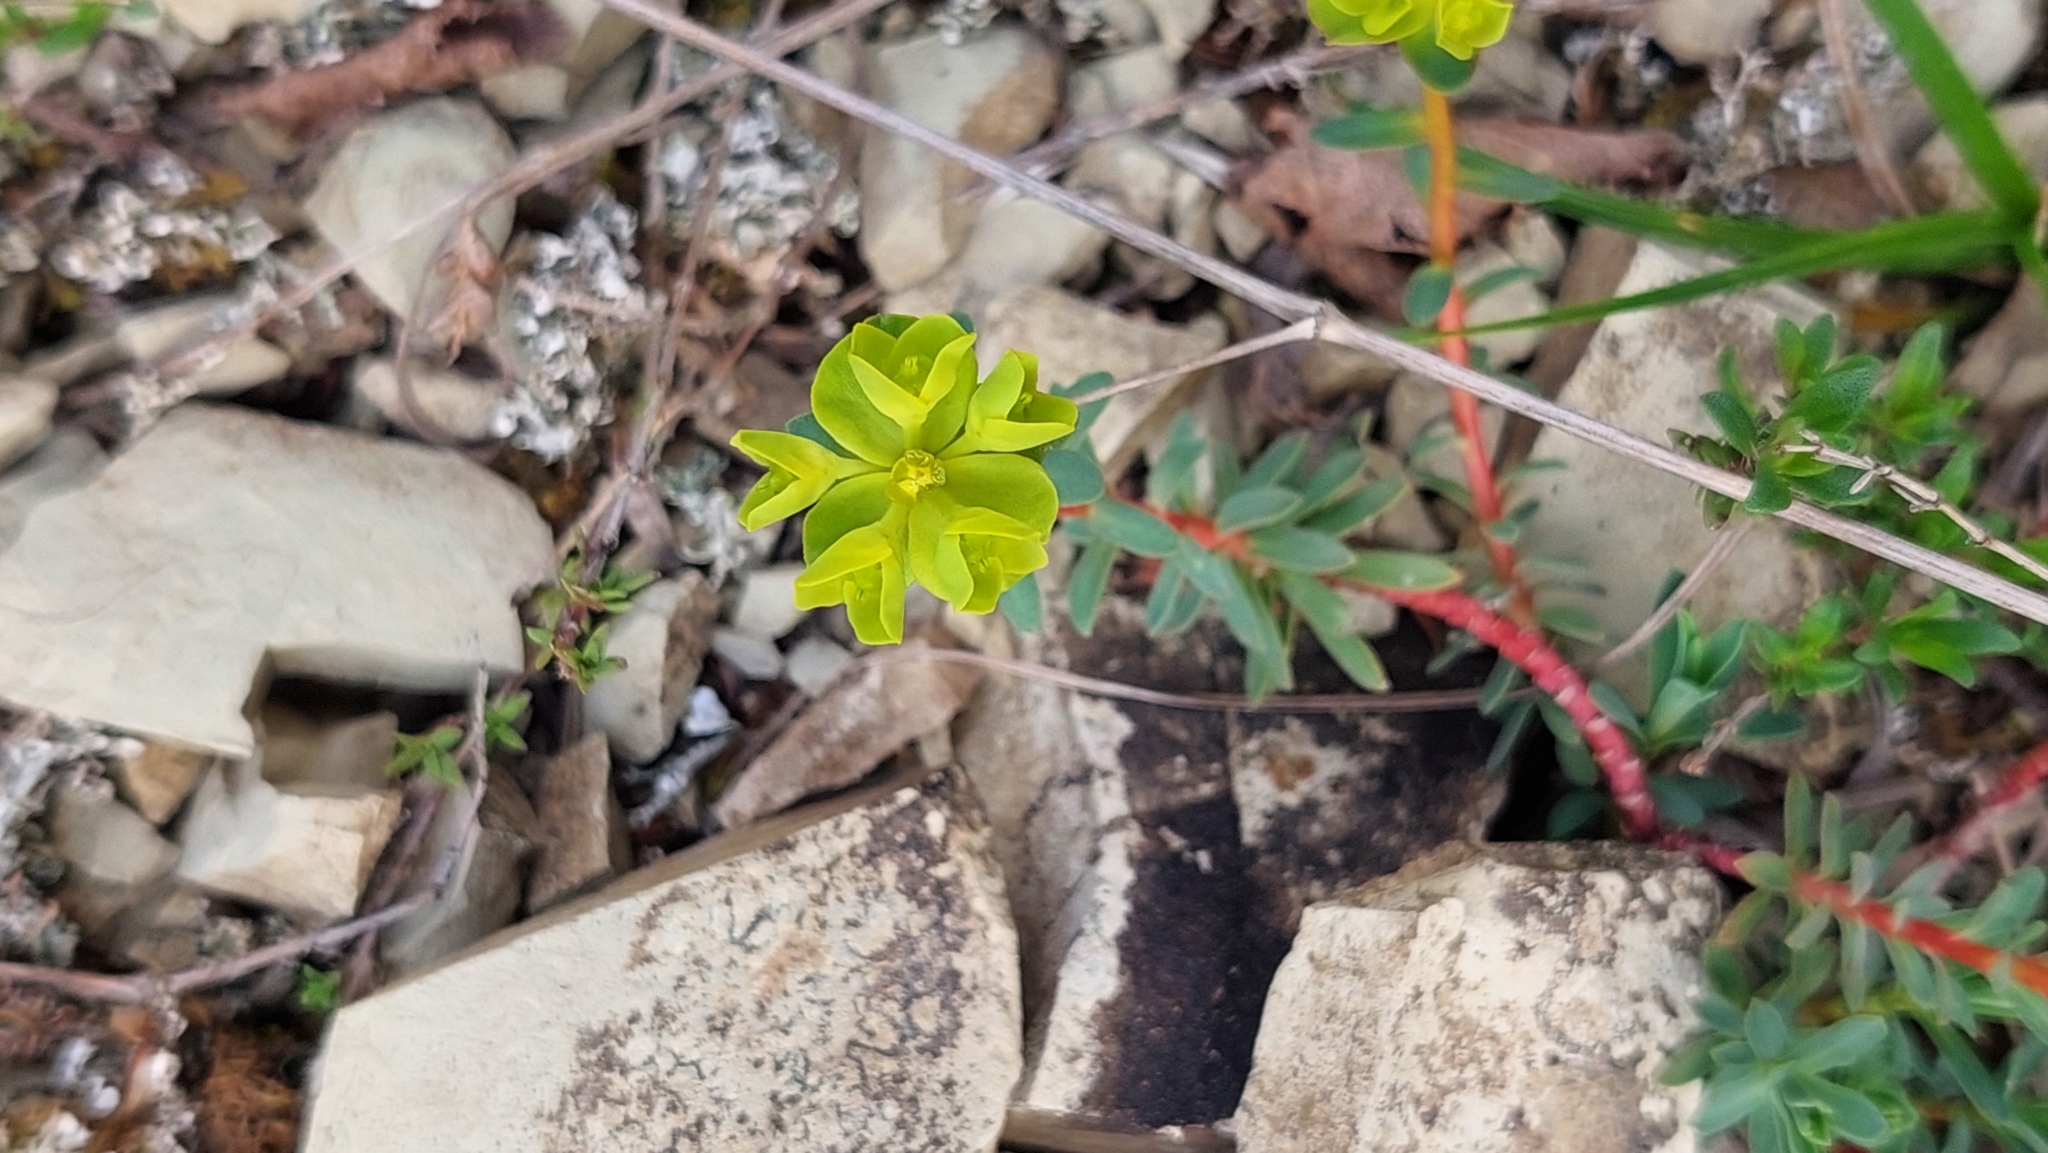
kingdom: Plantae
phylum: Tracheophyta
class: Magnoliopsida
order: Malpighiales
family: Euphorbiaceae
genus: Euphorbia
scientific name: Euphorbia petrophila
